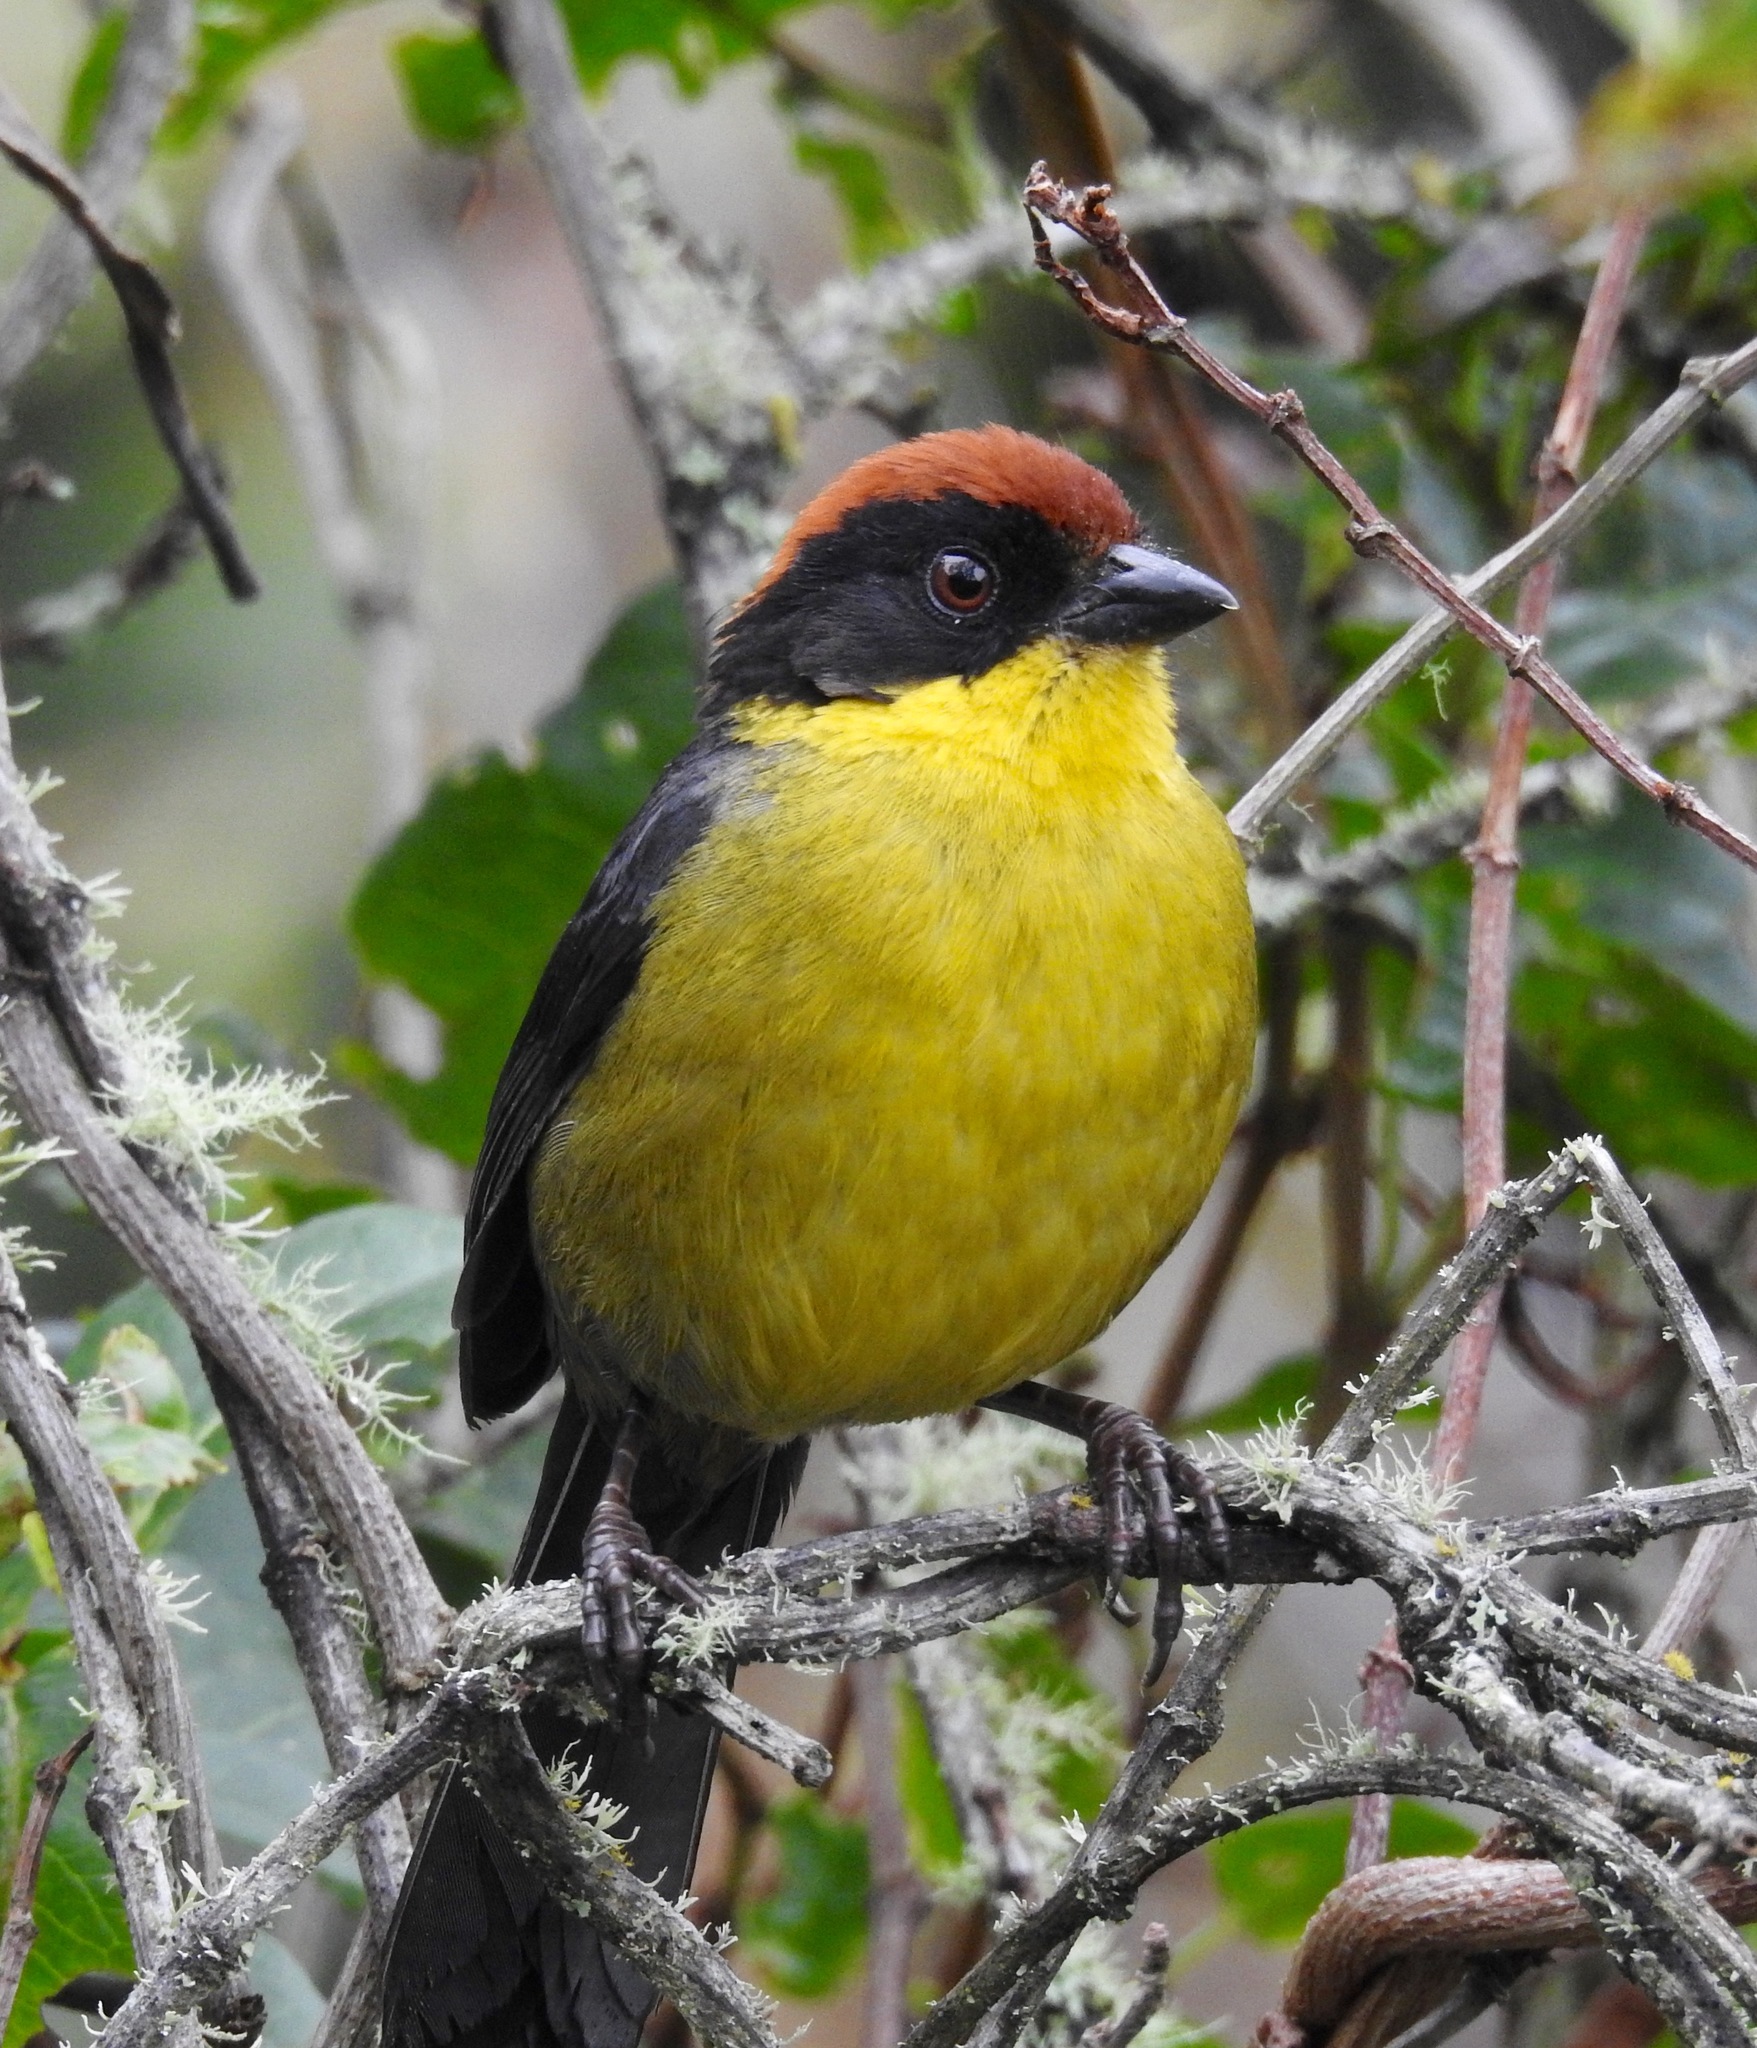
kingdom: Animalia
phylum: Chordata
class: Aves
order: Passeriformes
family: Passerellidae
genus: Atlapetes
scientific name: Atlapetes latinuchus
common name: Yellow-breasted brushfinch
